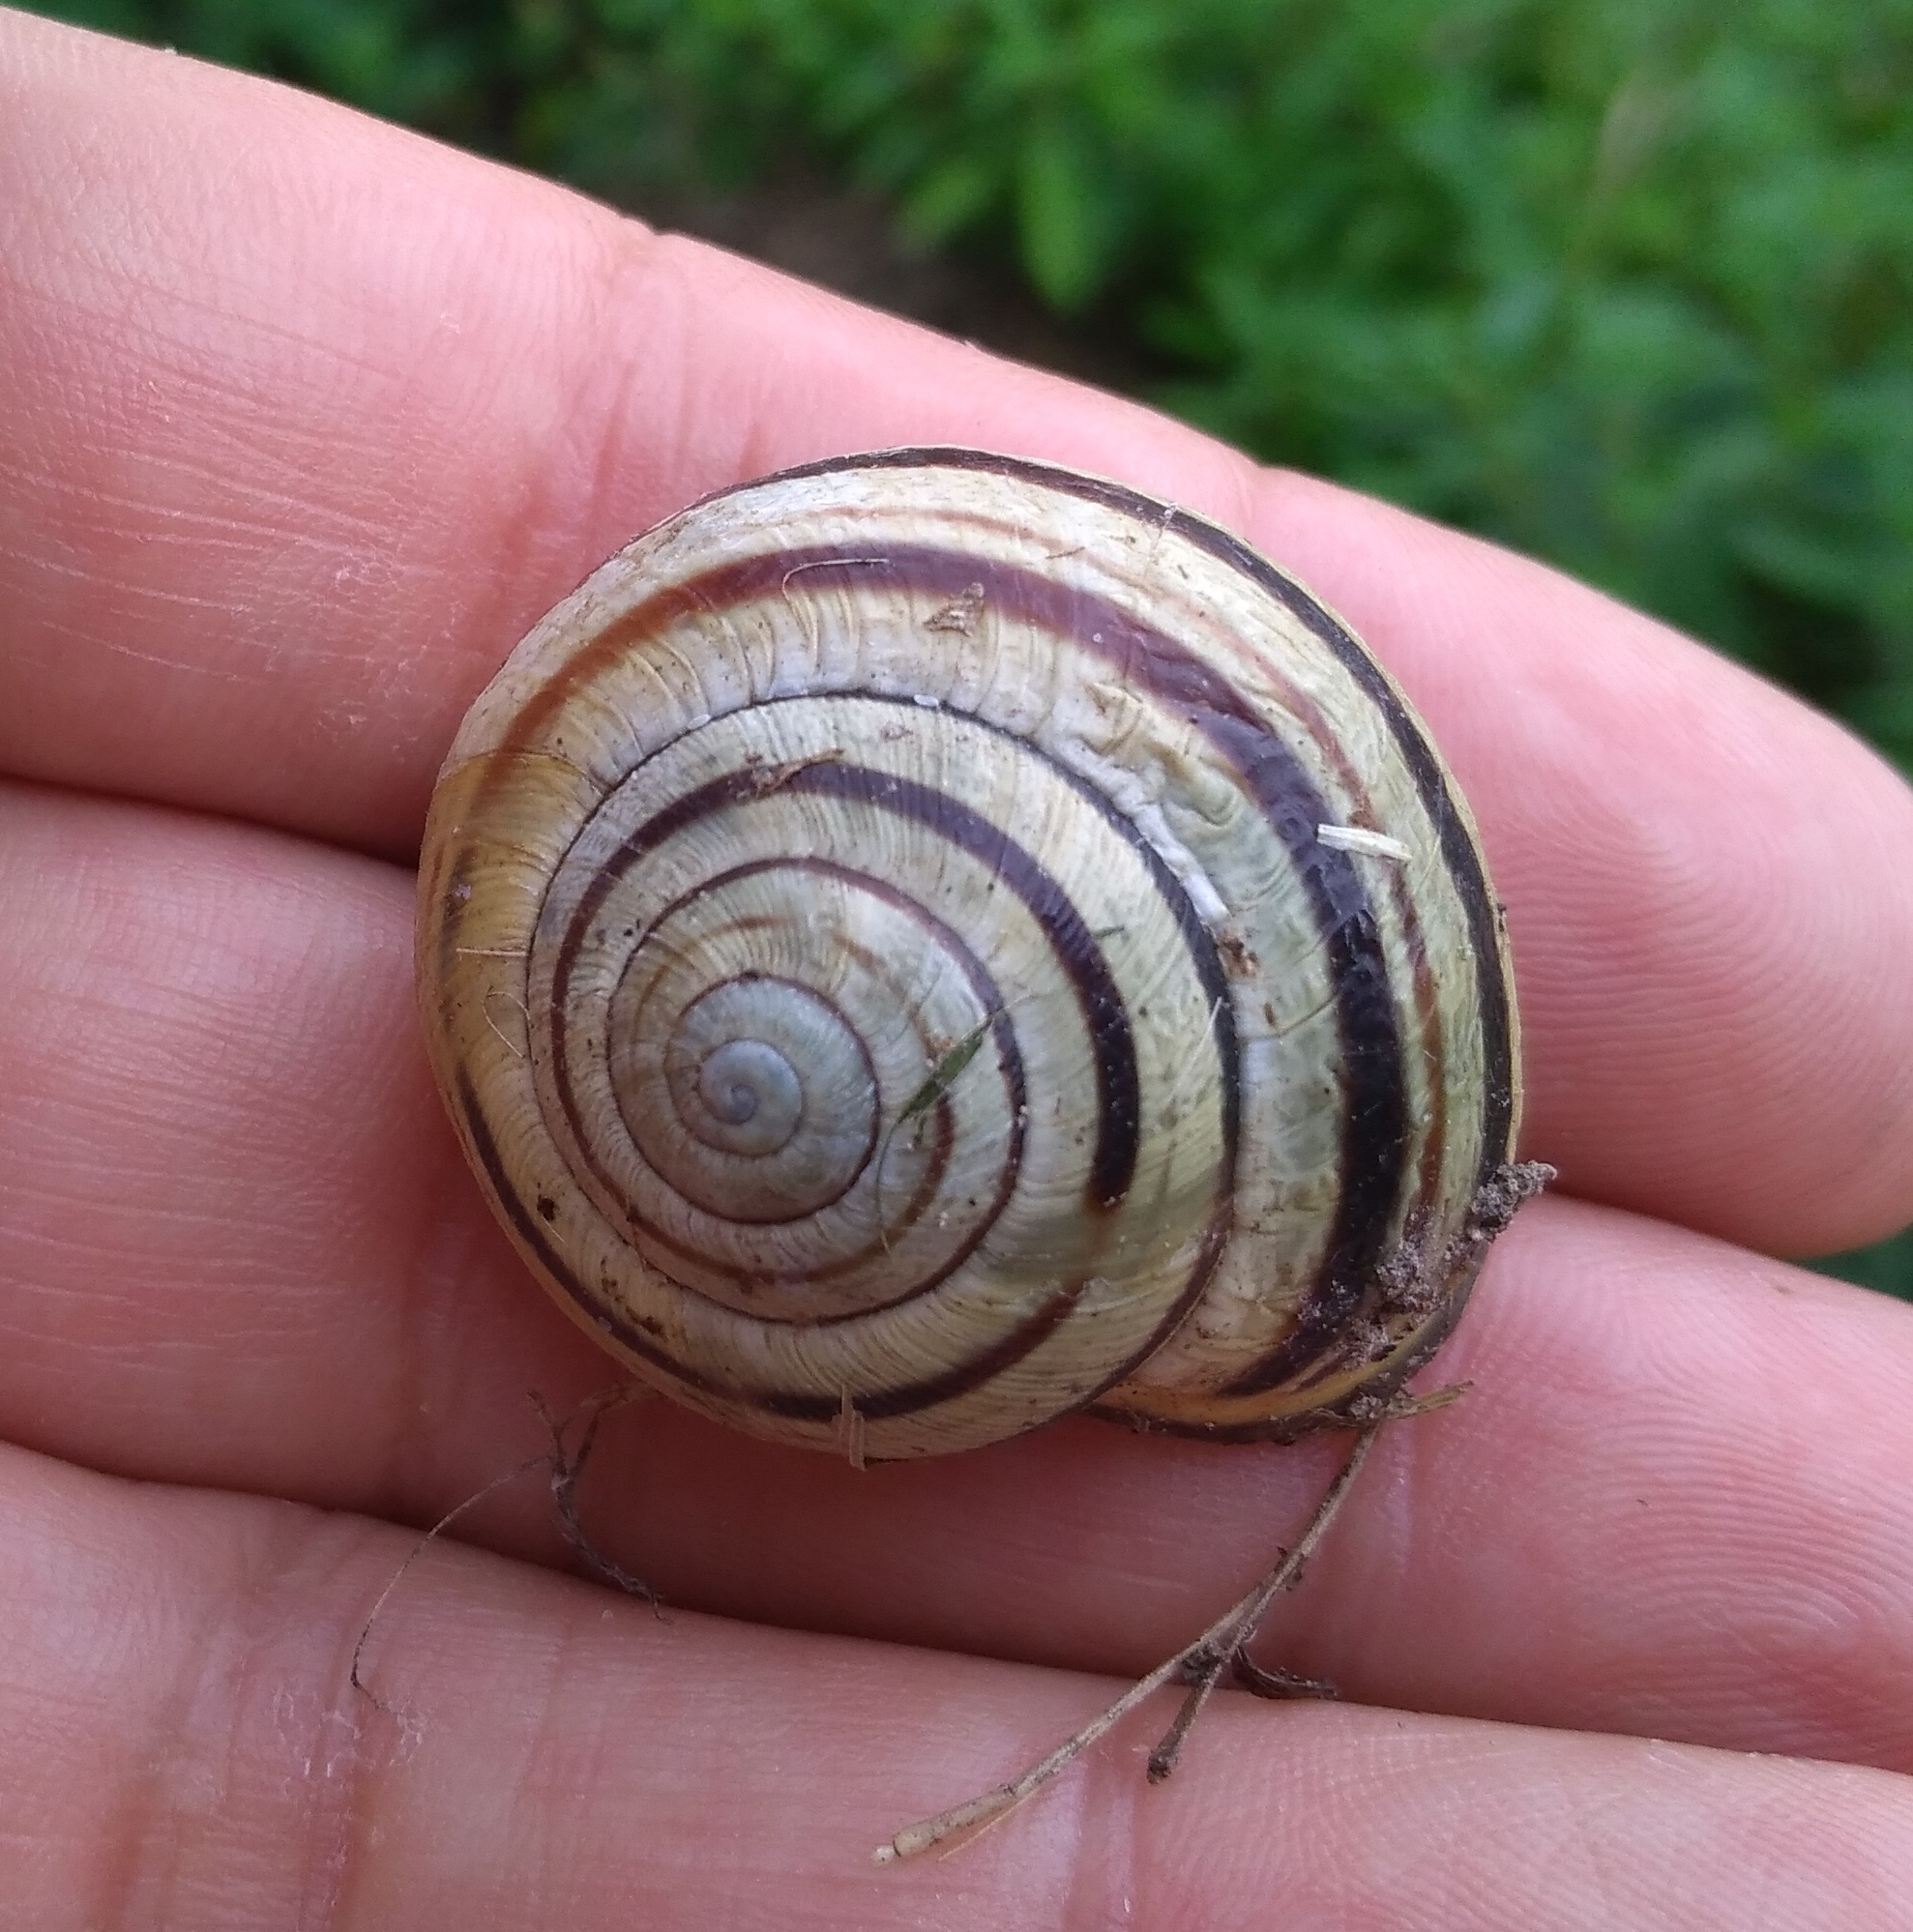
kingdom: Animalia
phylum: Mollusca
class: Gastropoda
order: Stylommatophora
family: Helicidae
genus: Cepaea
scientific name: Cepaea nemoralis
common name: Grovesnail
